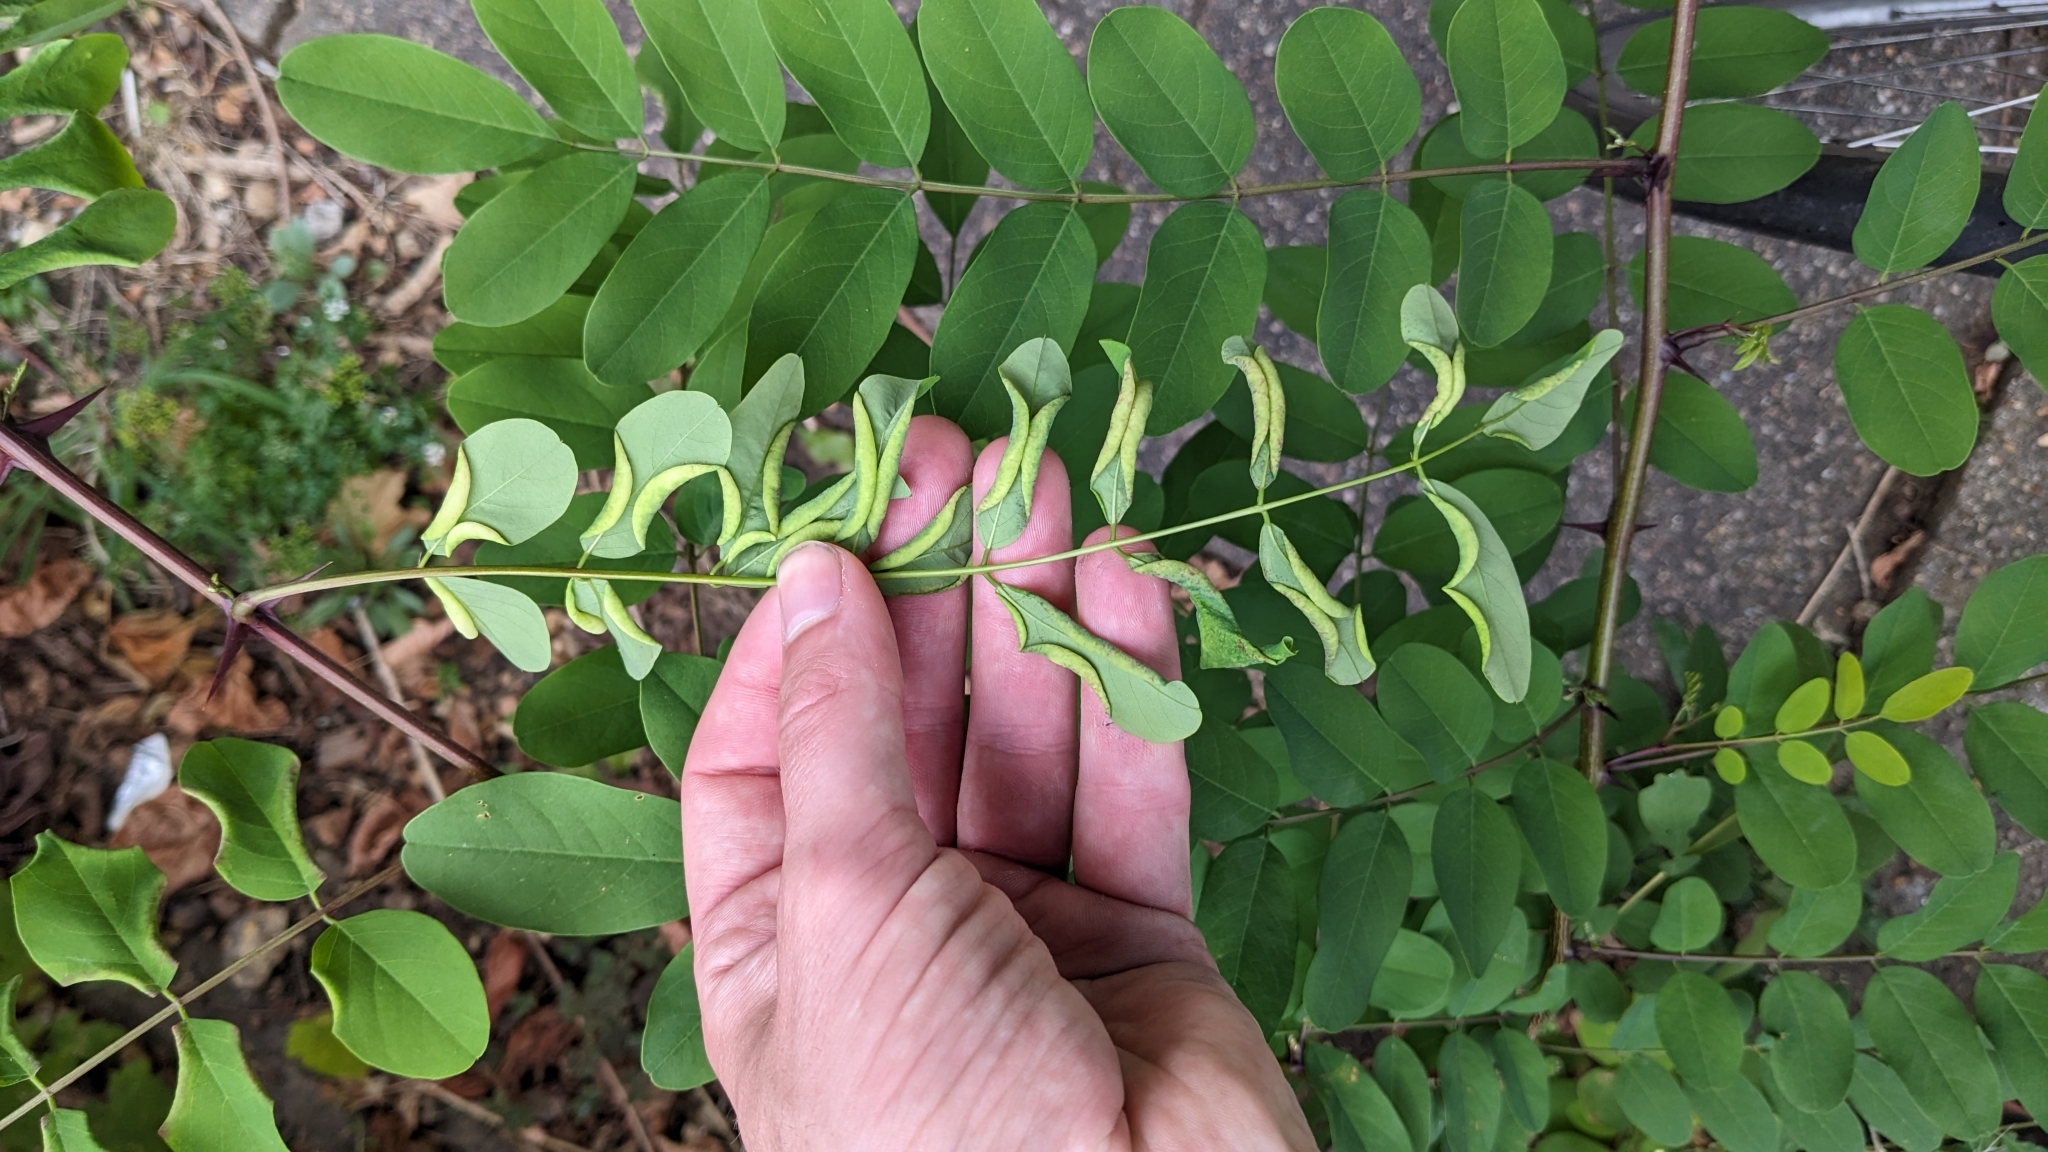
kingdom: Animalia
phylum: Arthropoda
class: Insecta
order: Diptera
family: Cecidomyiidae
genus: Obolodiplosis
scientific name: Obolodiplosis robiniae
